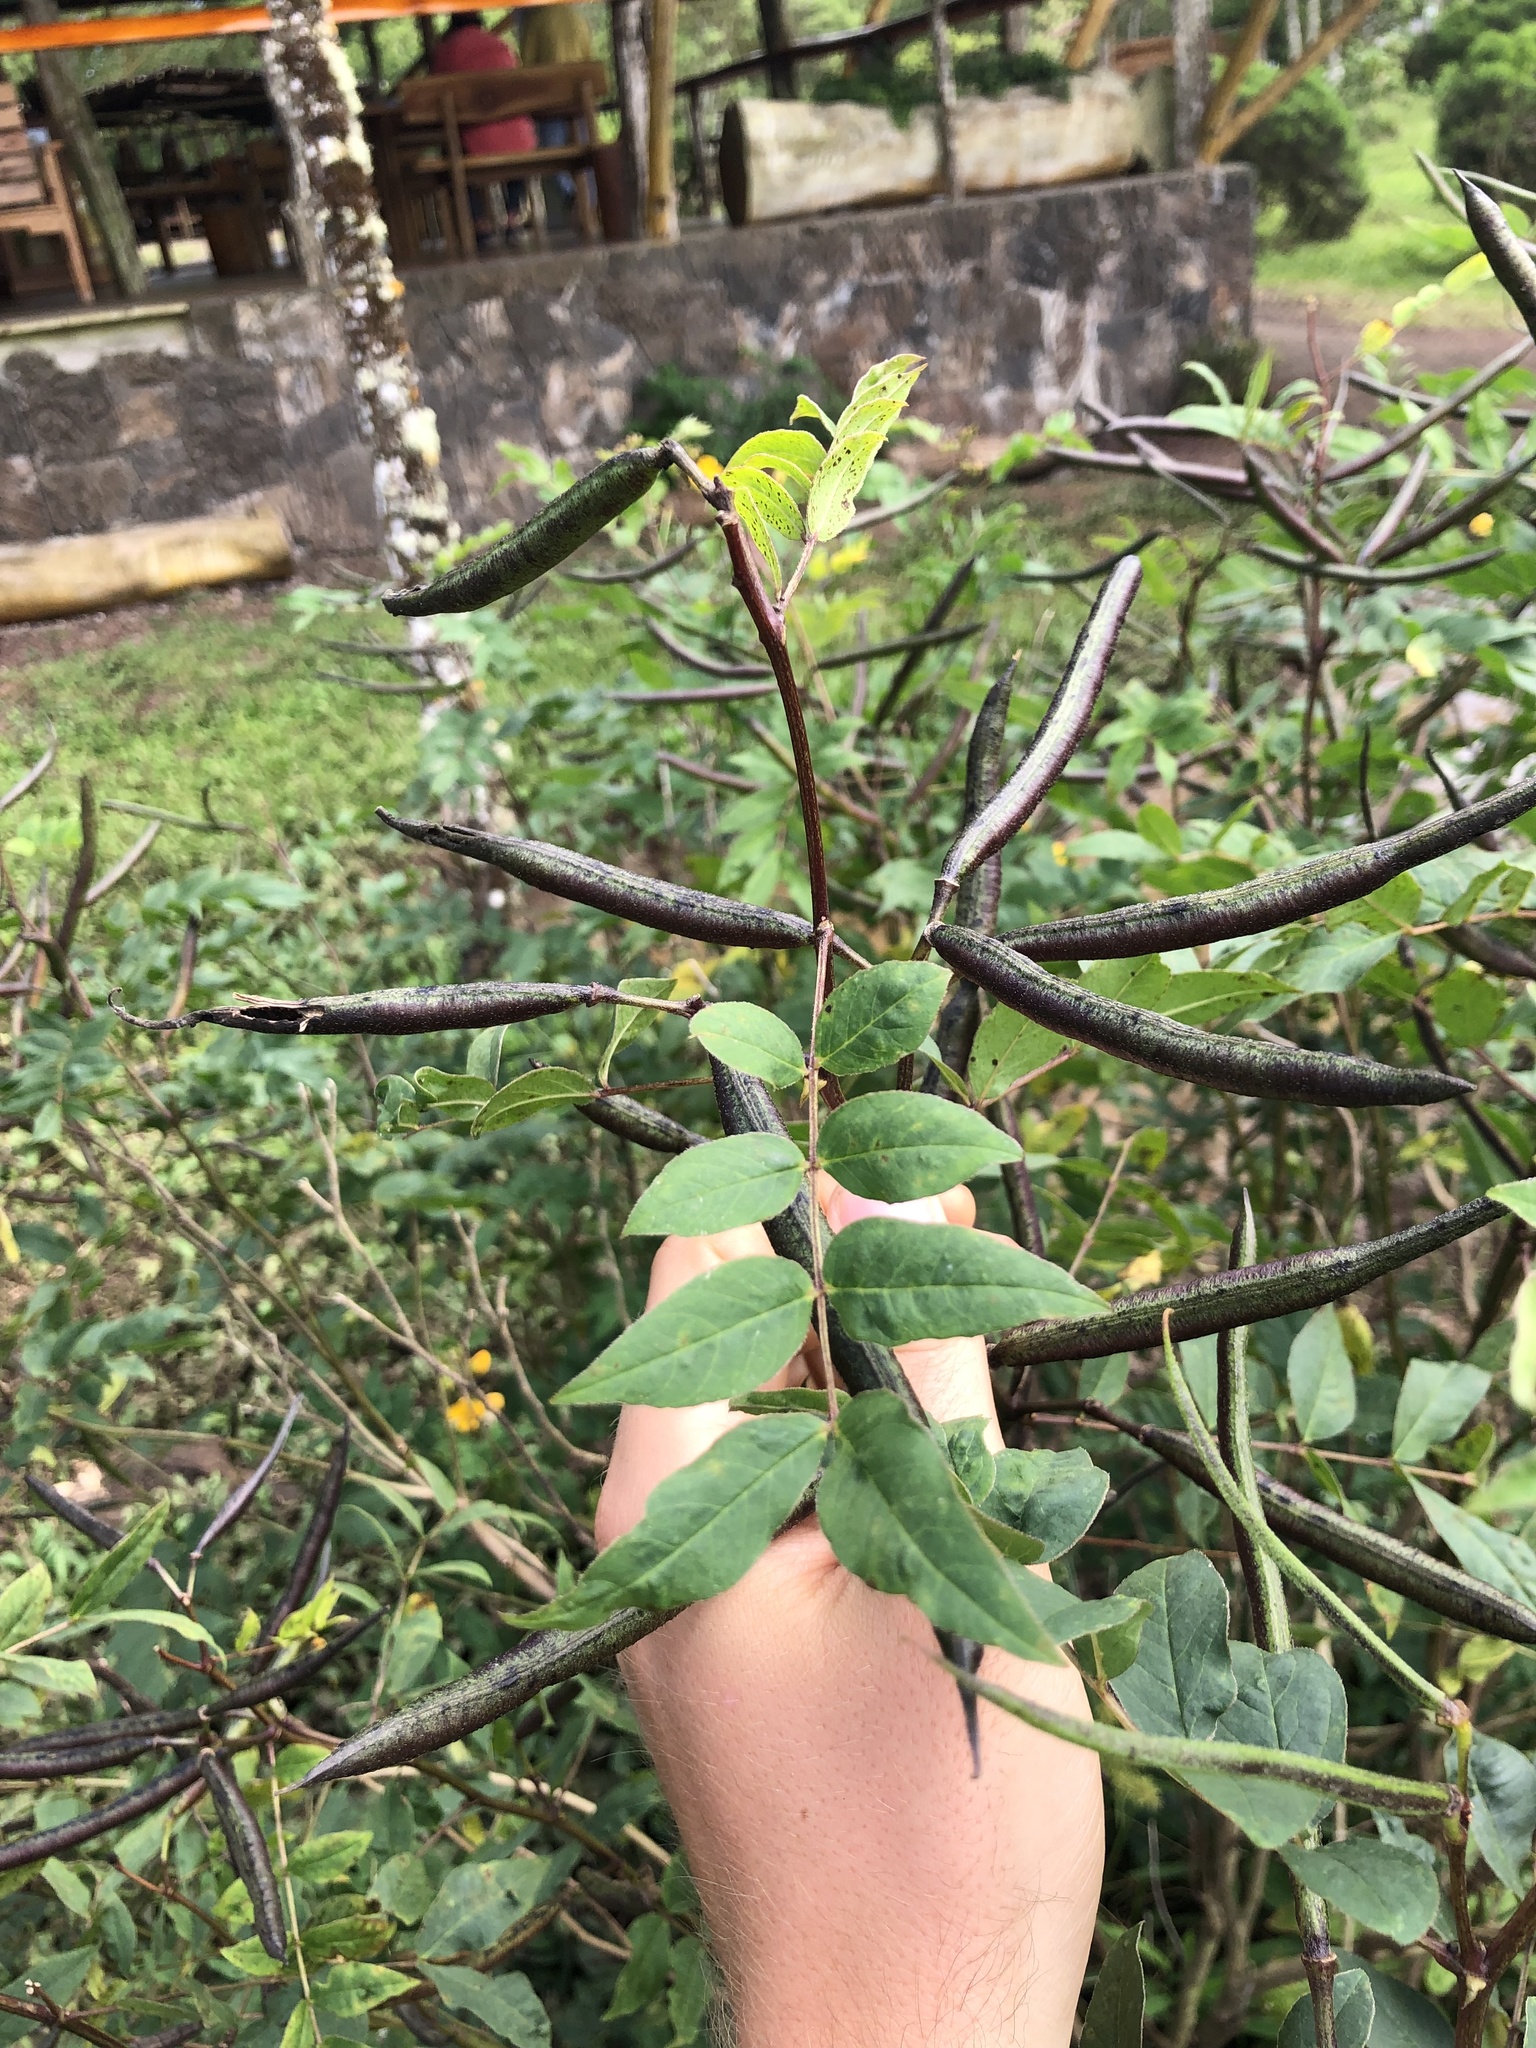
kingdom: Plantae
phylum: Tracheophyta
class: Magnoliopsida
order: Fabales
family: Fabaceae
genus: Senna
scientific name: Senna occidentalis
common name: Septicweed
